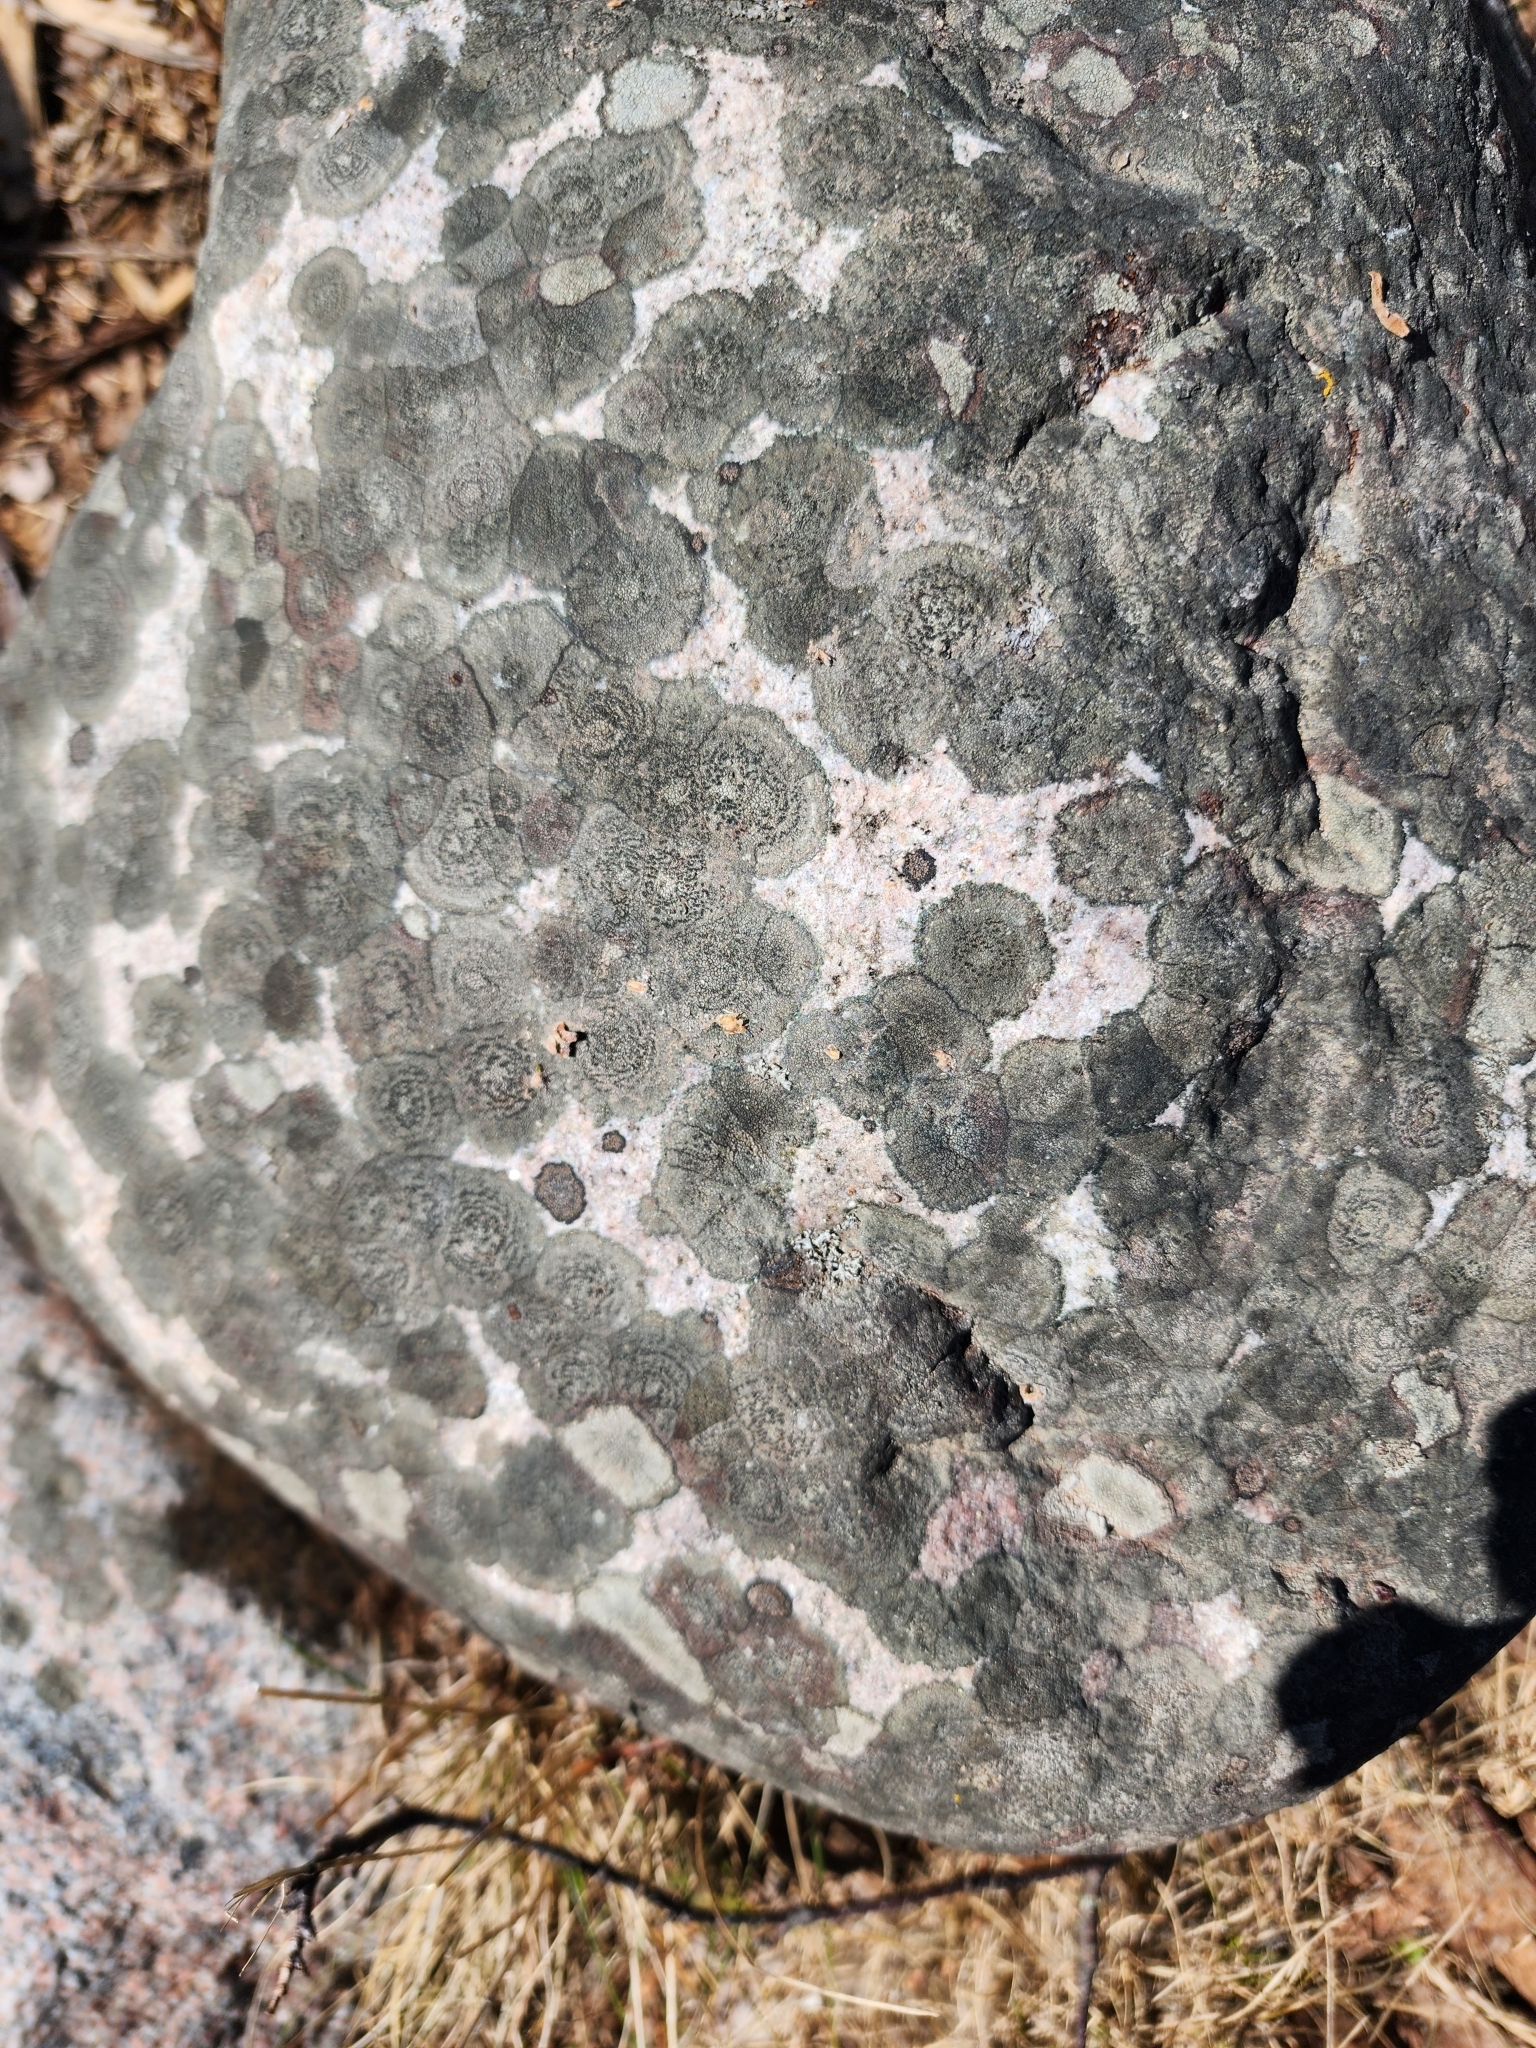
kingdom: Fungi
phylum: Ascomycota
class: Lecanoromycetes
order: Lecideales
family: Lecideaceae
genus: Porpidia
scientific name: Porpidia crustulata
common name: Concentric boulder lichen
